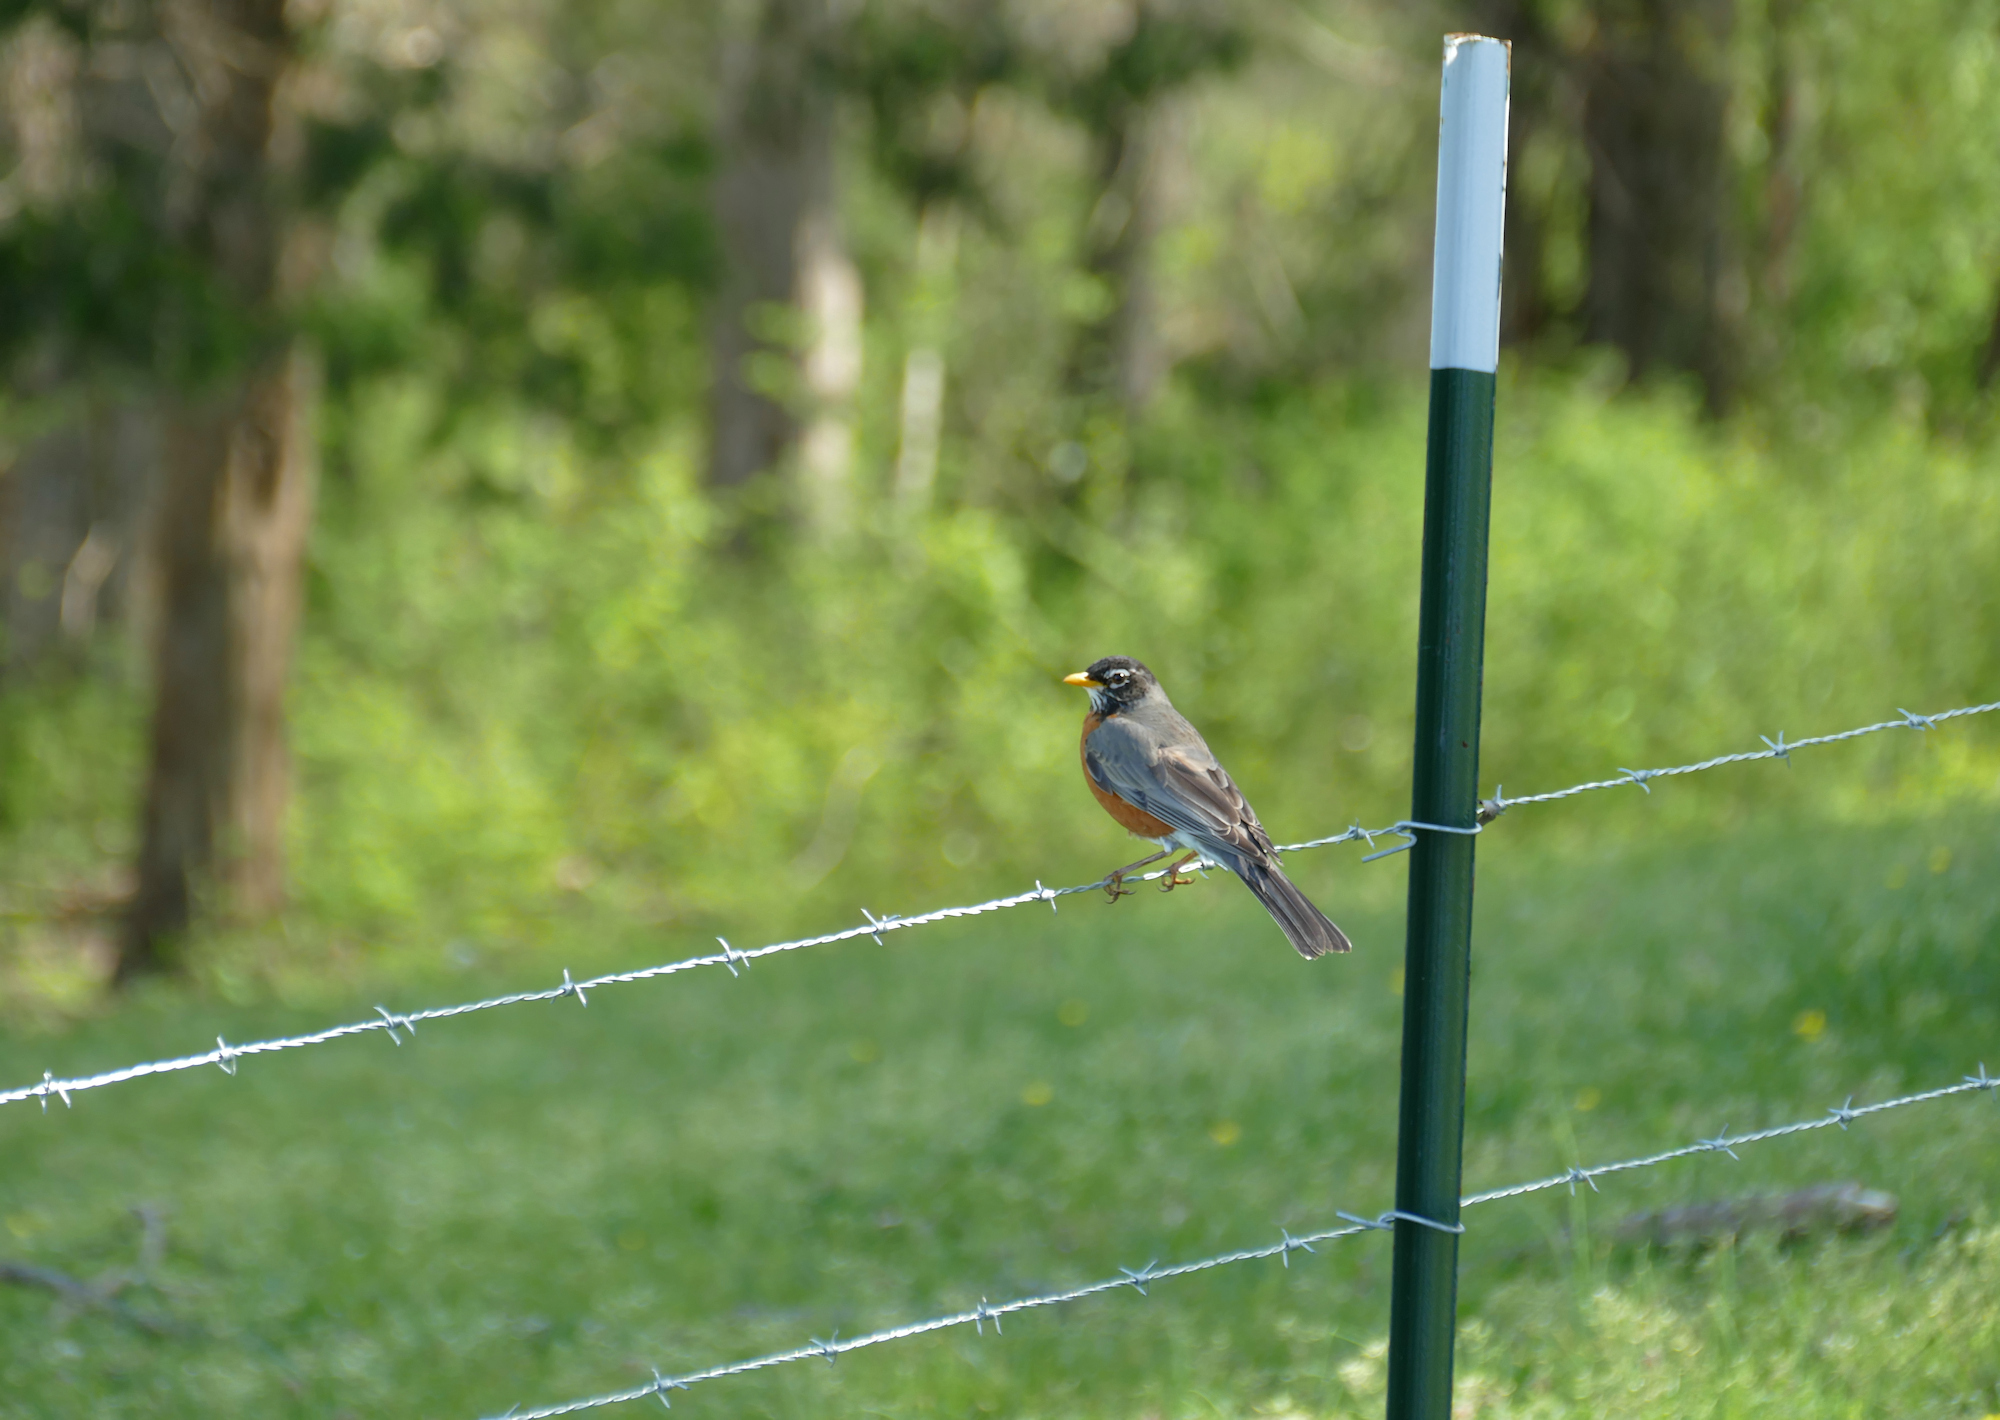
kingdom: Animalia
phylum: Chordata
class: Aves
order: Passeriformes
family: Turdidae
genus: Turdus
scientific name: Turdus migratorius
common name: American robin
